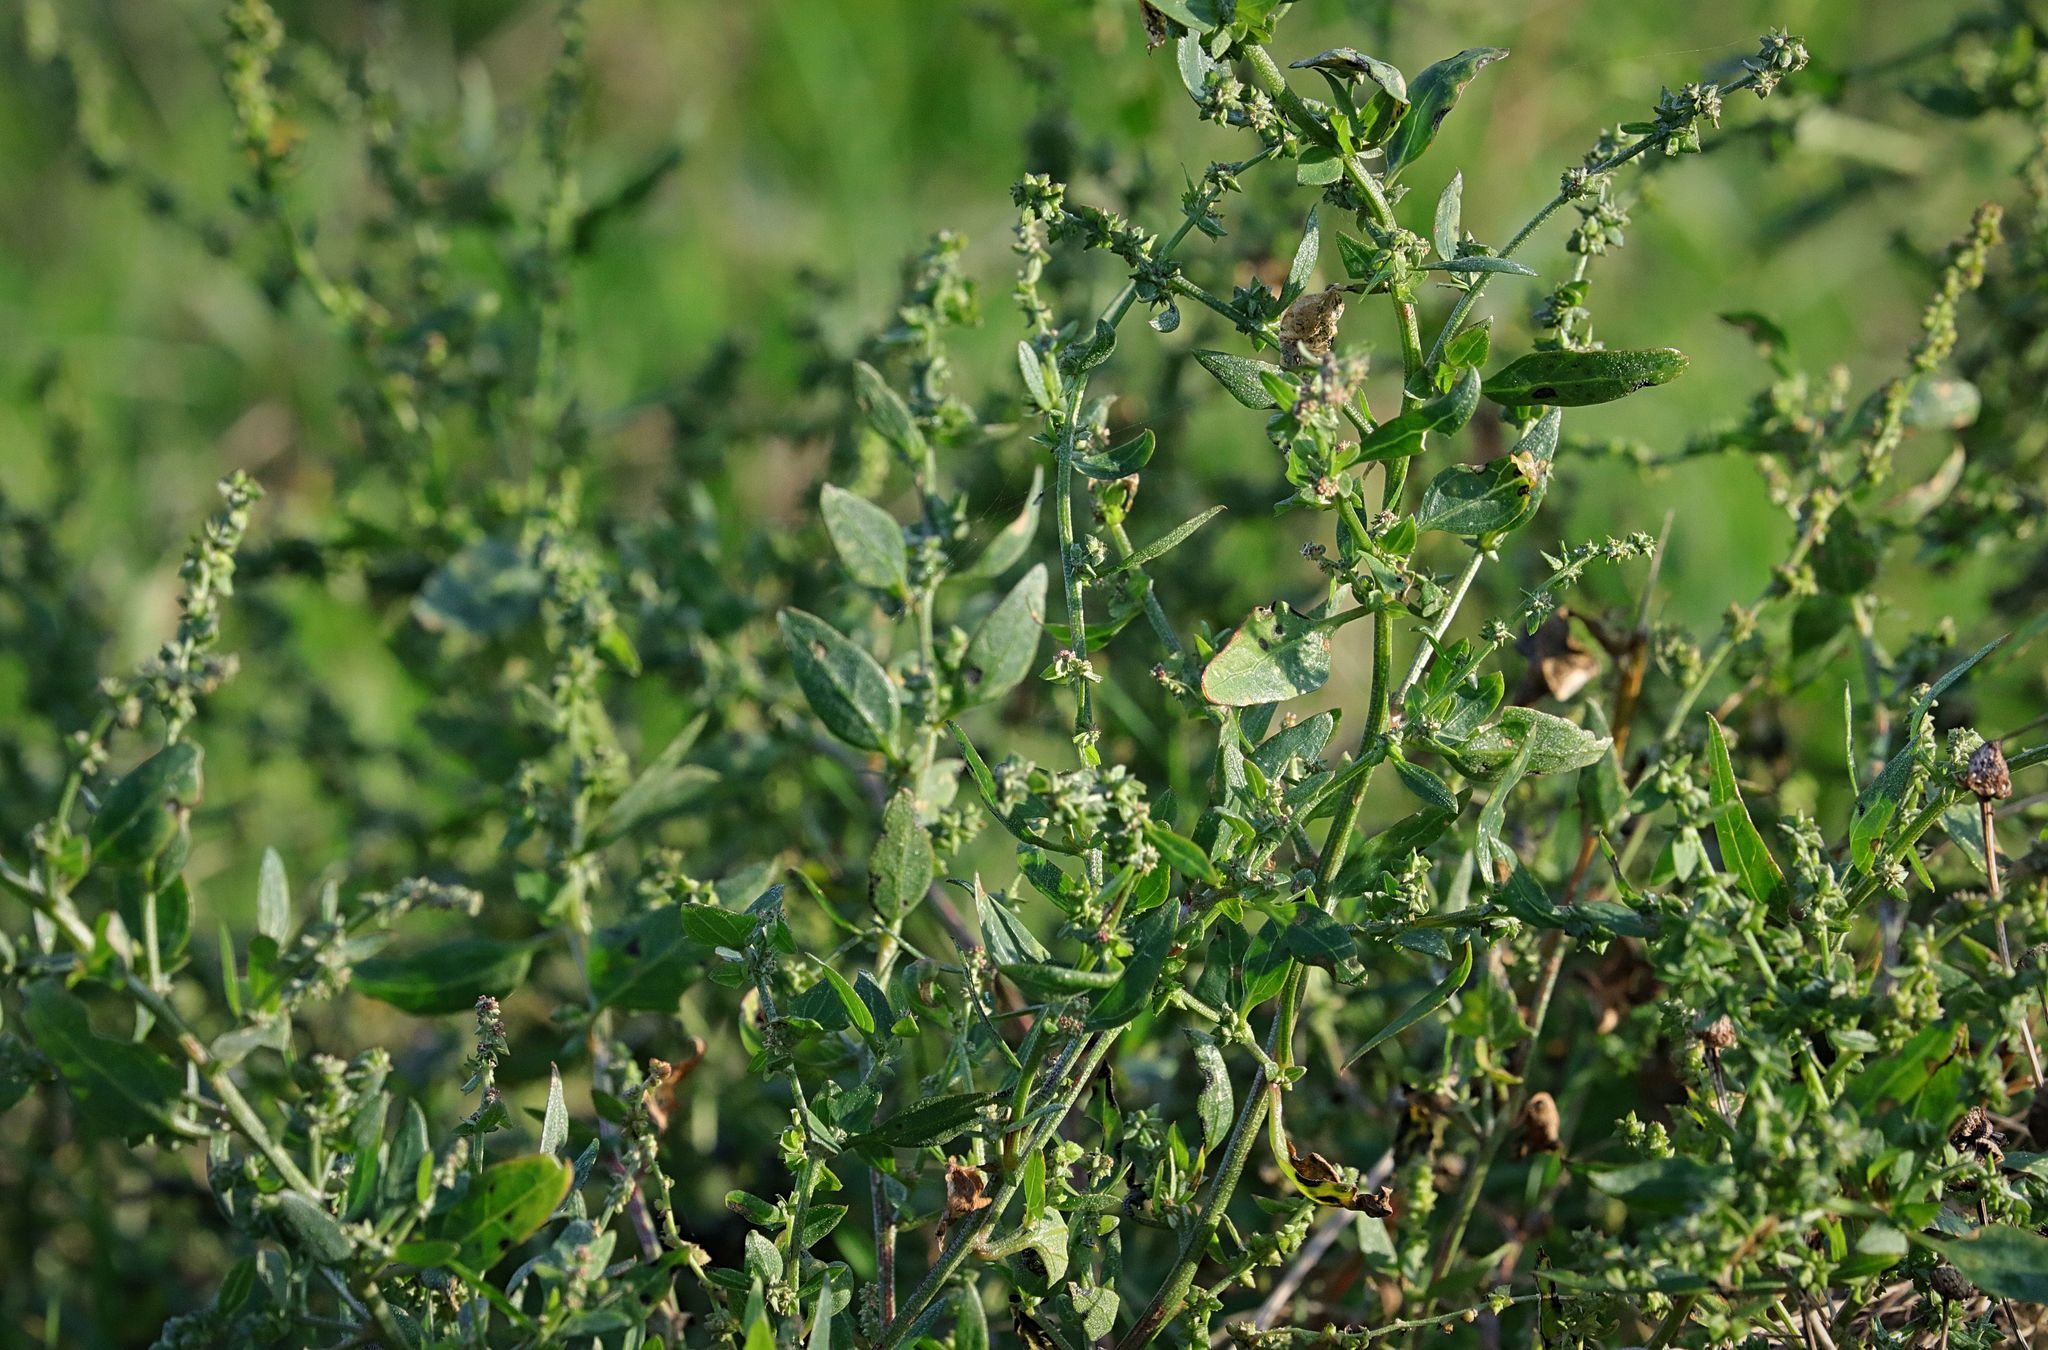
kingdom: Plantae
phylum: Tracheophyta
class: Magnoliopsida
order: Caryophyllales
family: Amaranthaceae
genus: Atriplex
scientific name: Atriplex prostrata
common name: Spear-leaved orache
